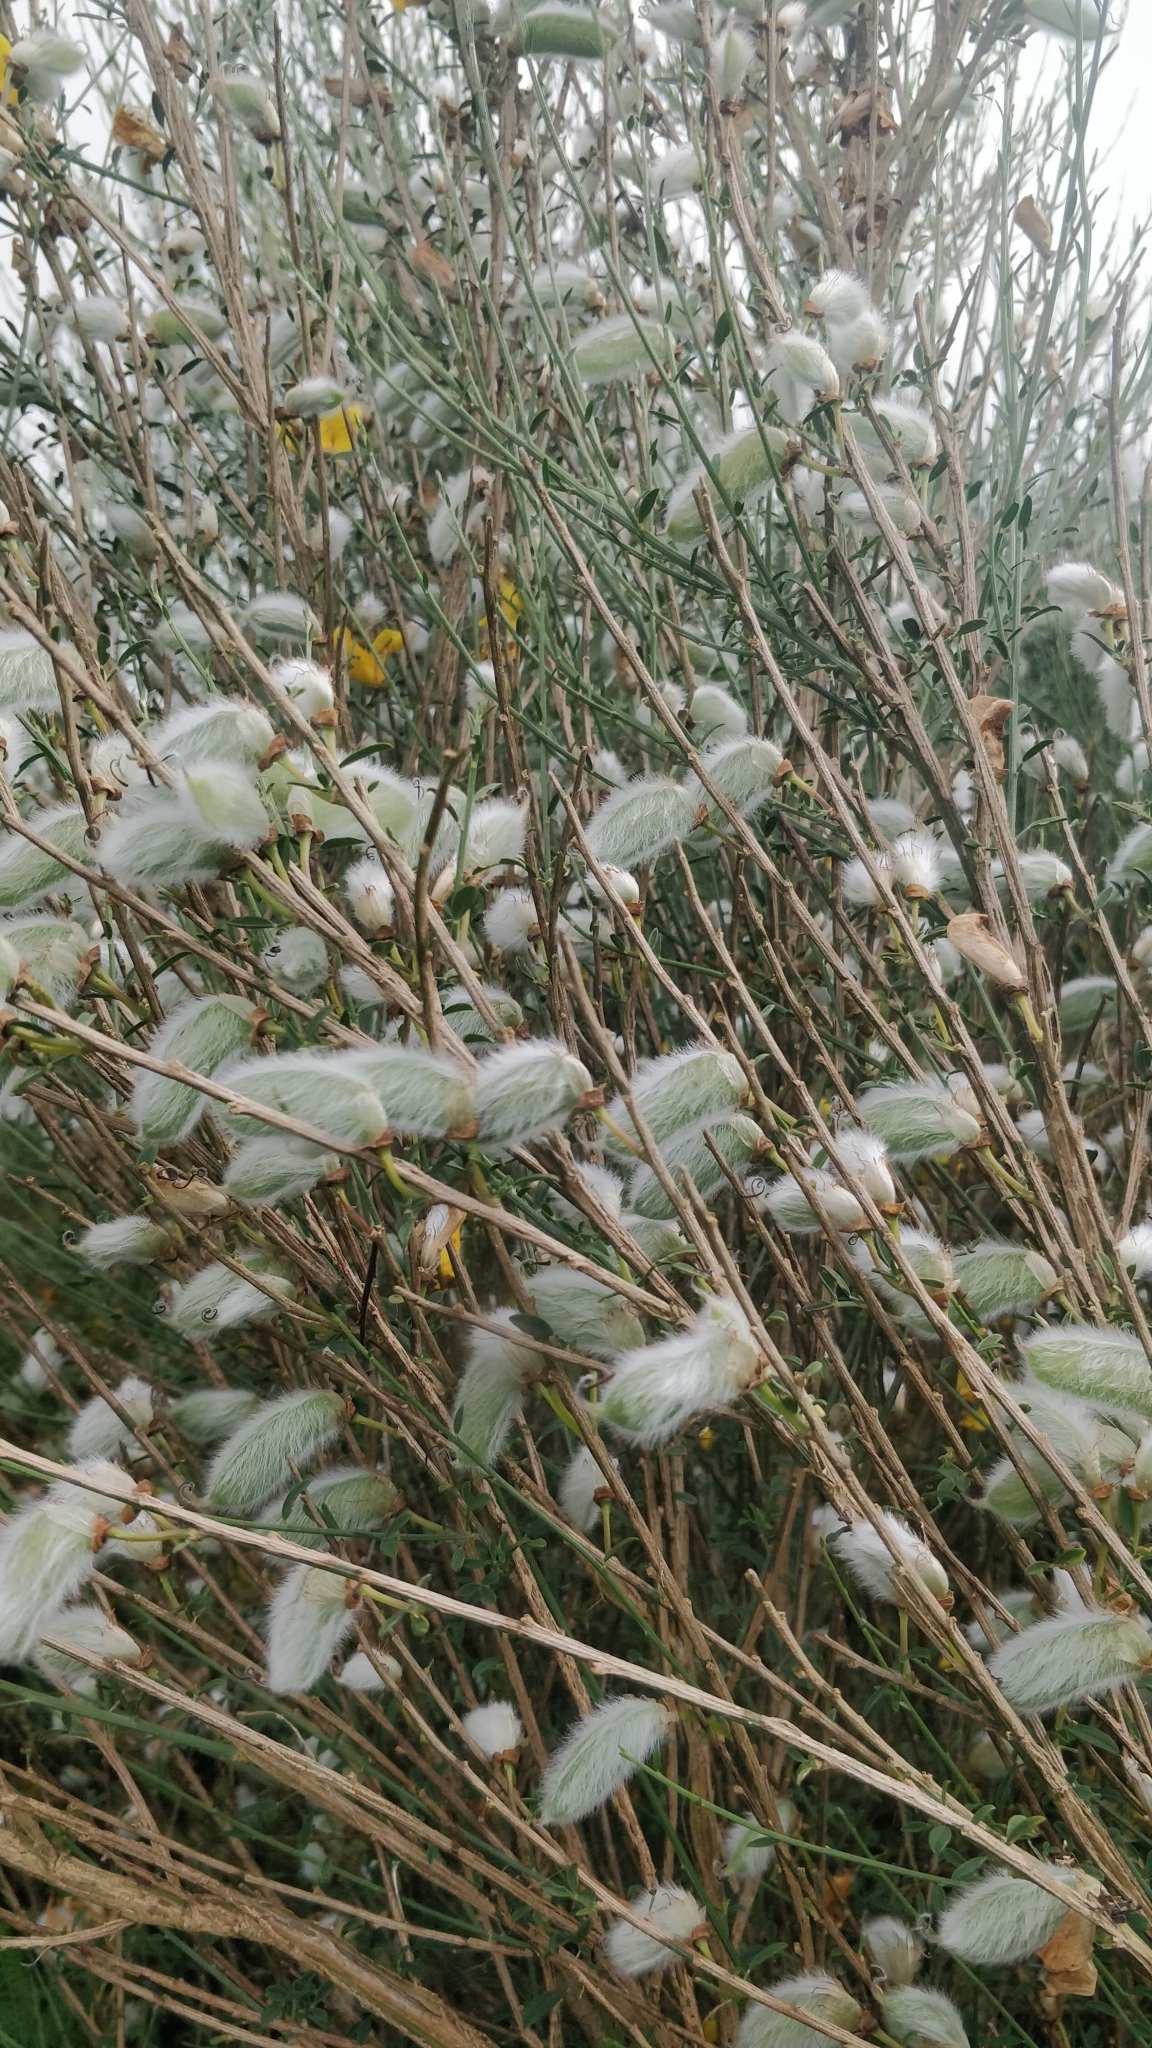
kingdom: Plantae
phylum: Tracheophyta
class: Magnoliopsida
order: Fabales
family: Fabaceae
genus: Cytisus
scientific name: Cytisus striatus
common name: Hairy-fruited broom
